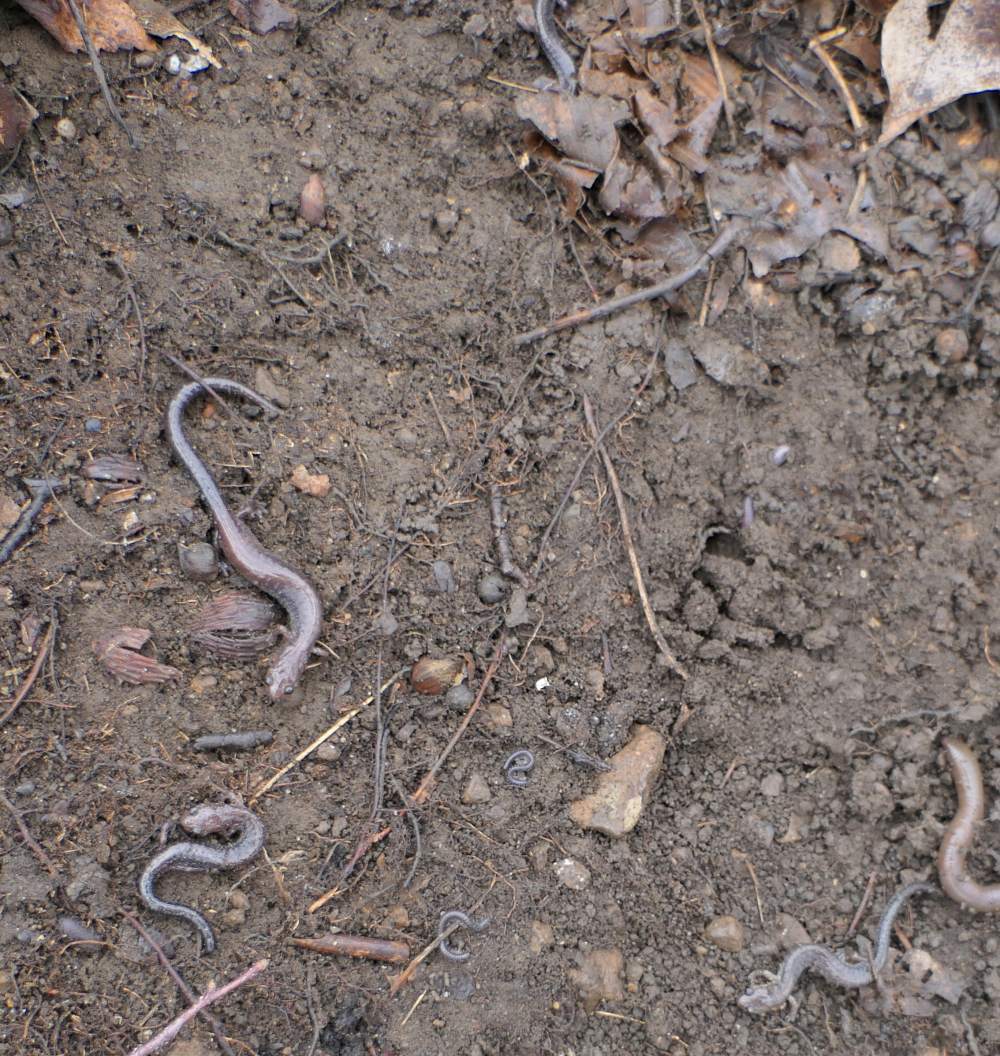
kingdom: Animalia
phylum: Chordata
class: Amphibia
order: Caudata
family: Plethodontidae
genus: Plethodon
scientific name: Plethodon cinereus
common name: Redback salamander
